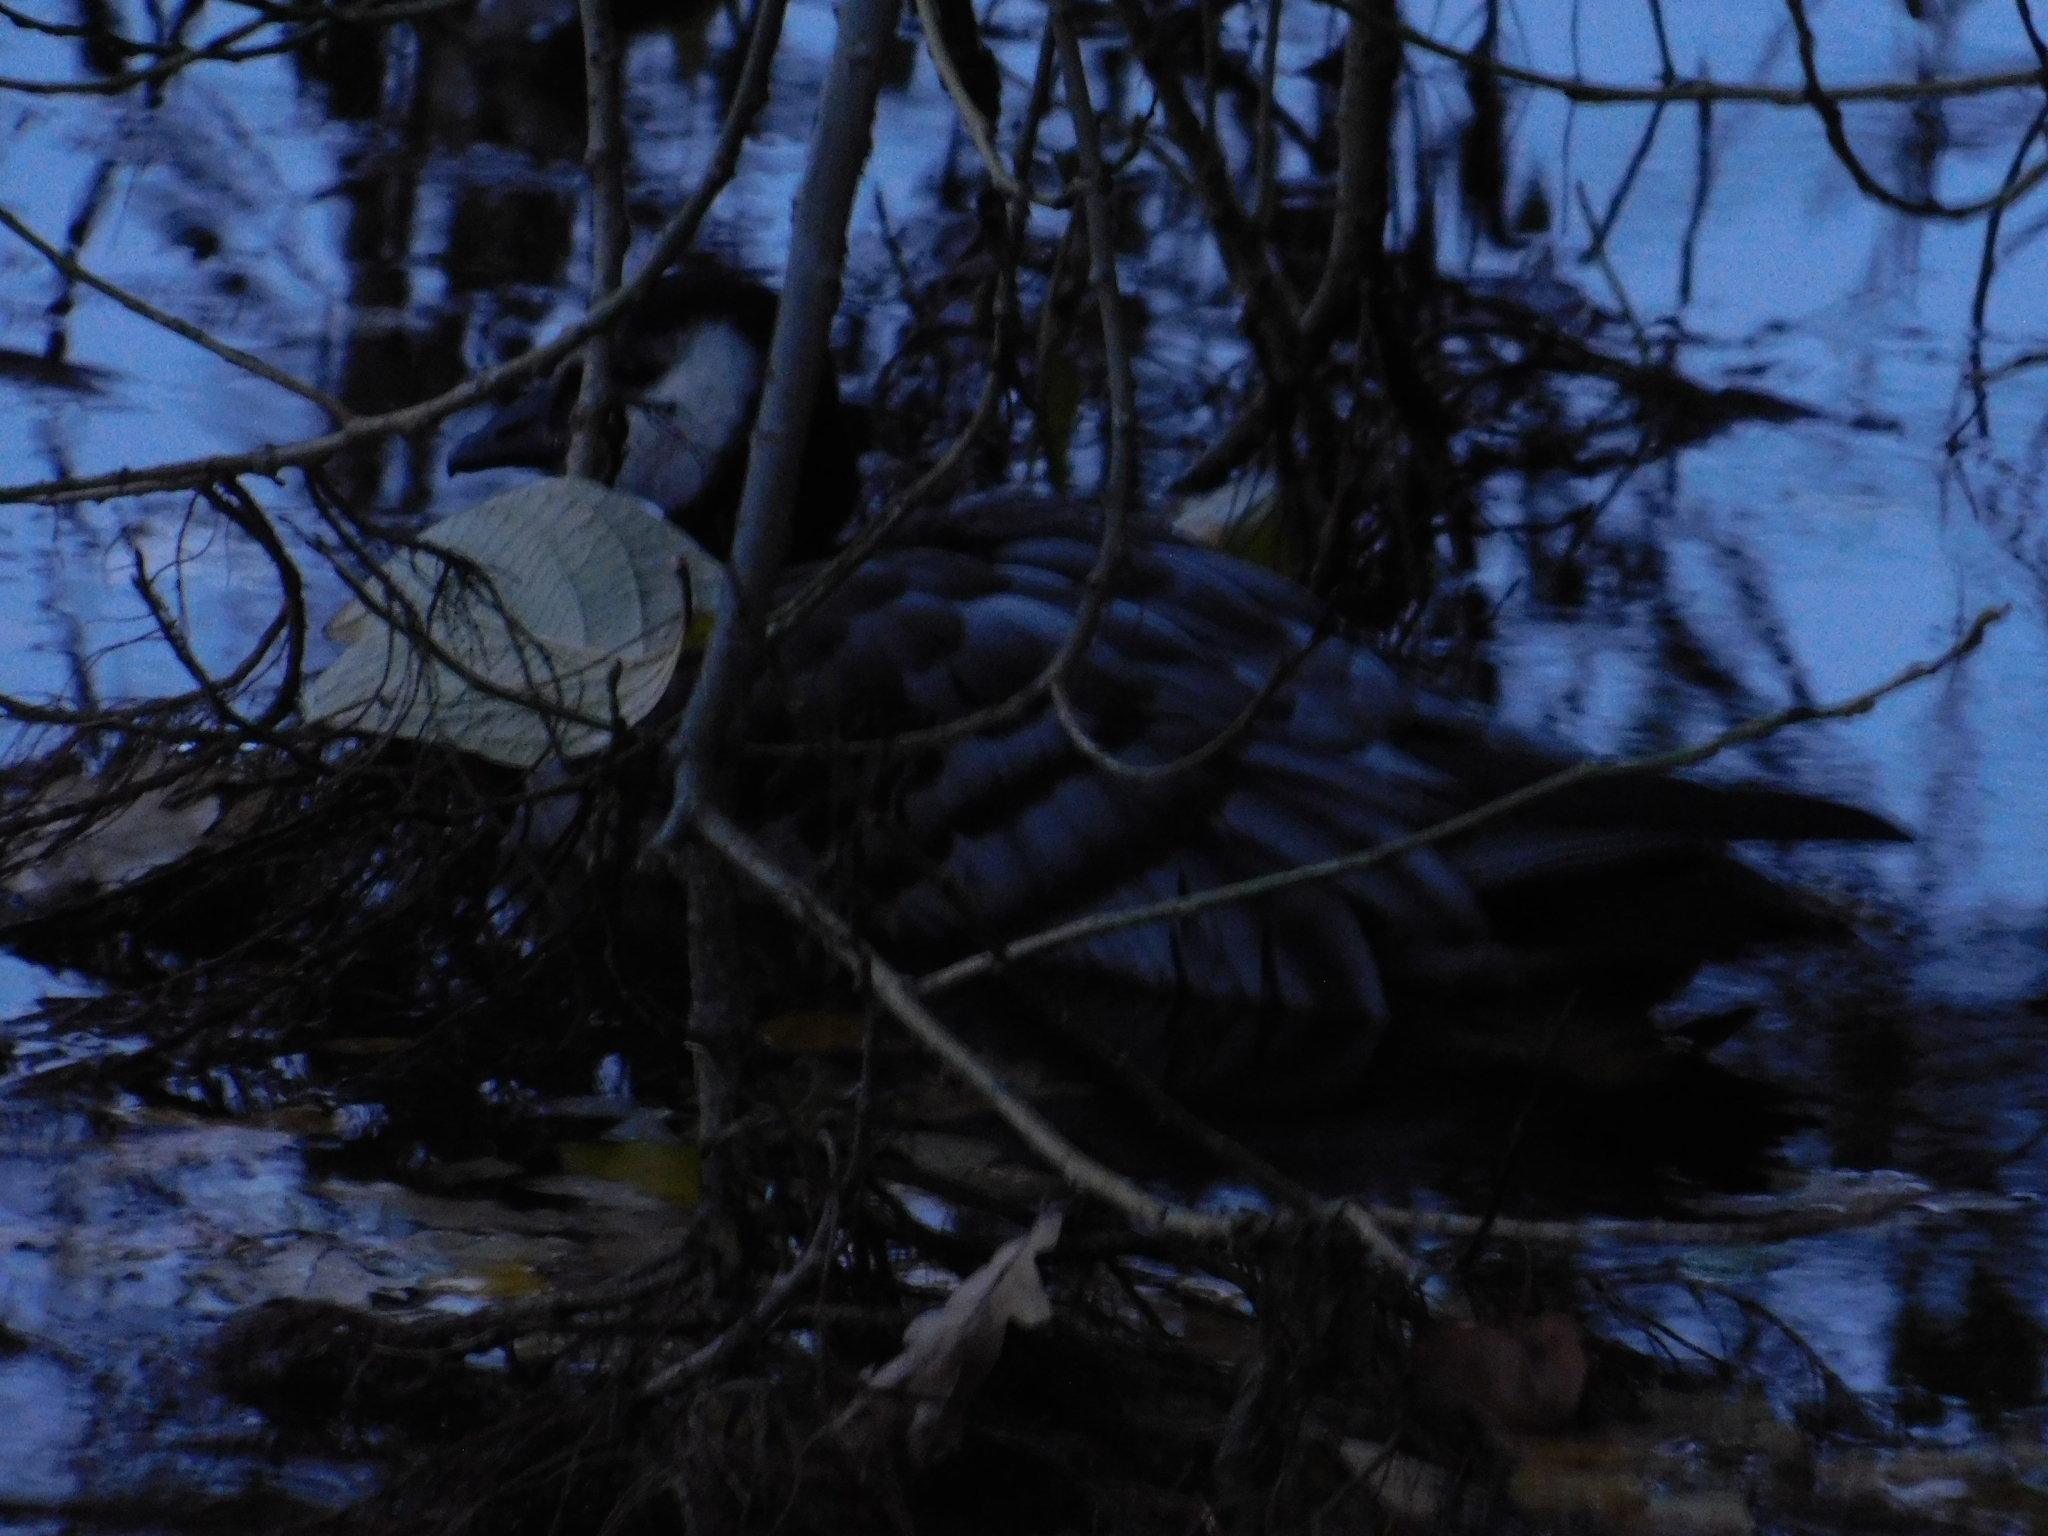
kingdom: Animalia
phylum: Chordata
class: Aves
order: Anseriformes
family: Anatidae
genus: Branta
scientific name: Branta leucopsis
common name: Barnacle goose
